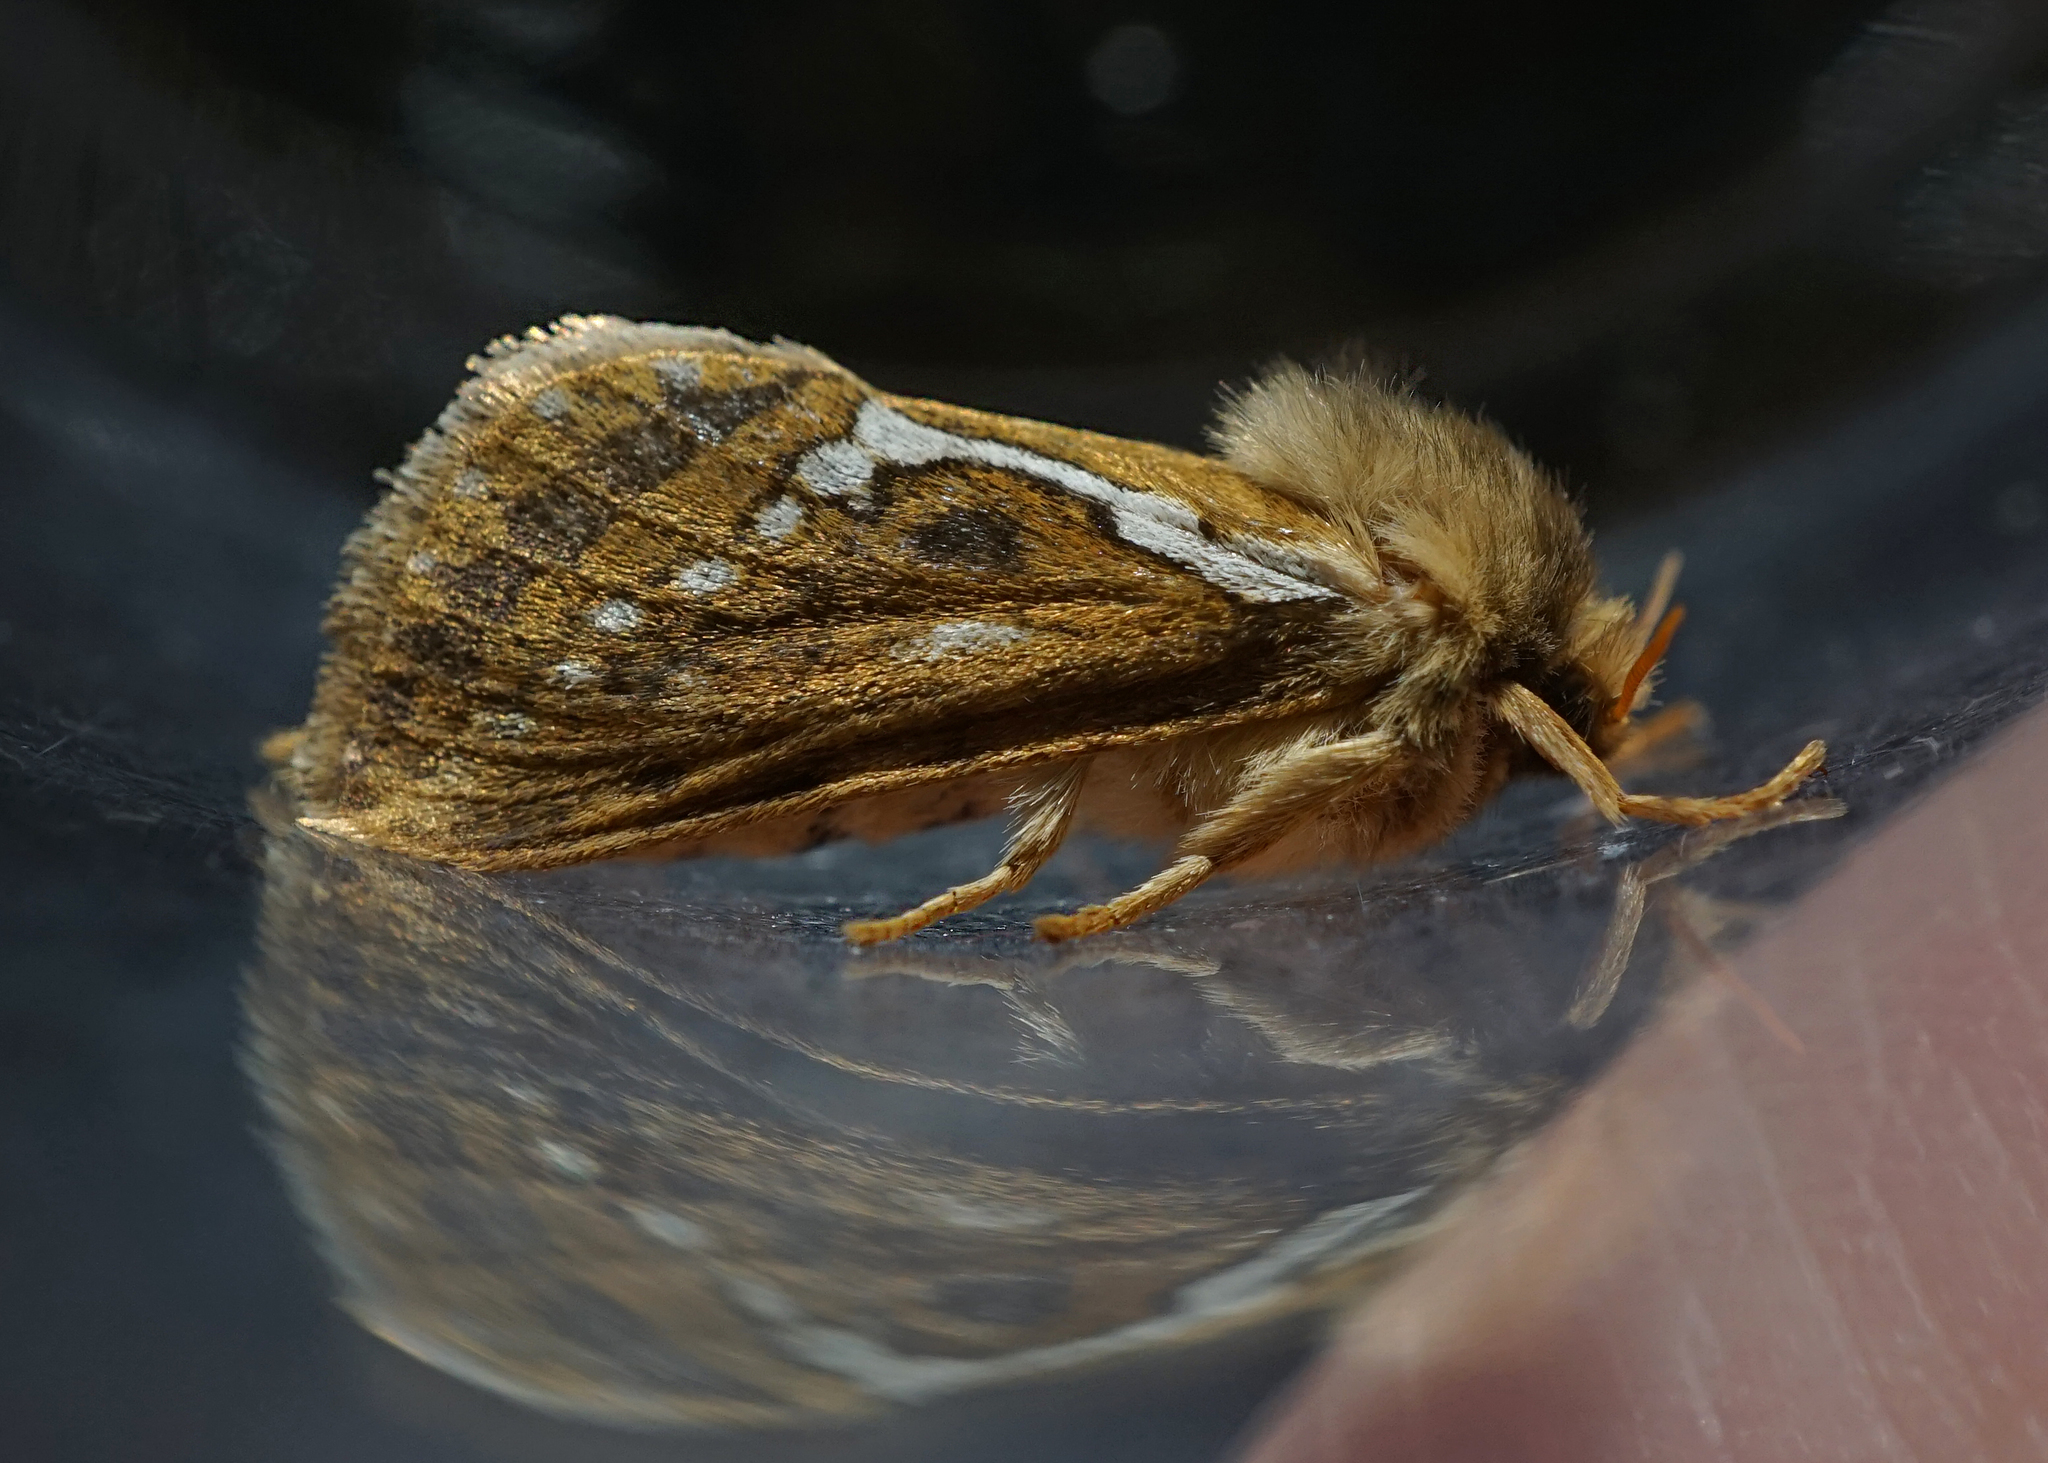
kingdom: Animalia
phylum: Arthropoda
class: Insecta
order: Lepidoptera
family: Hepialidae
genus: Korscheltellus
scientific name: Korscheltellus lupulina
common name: Common swift
